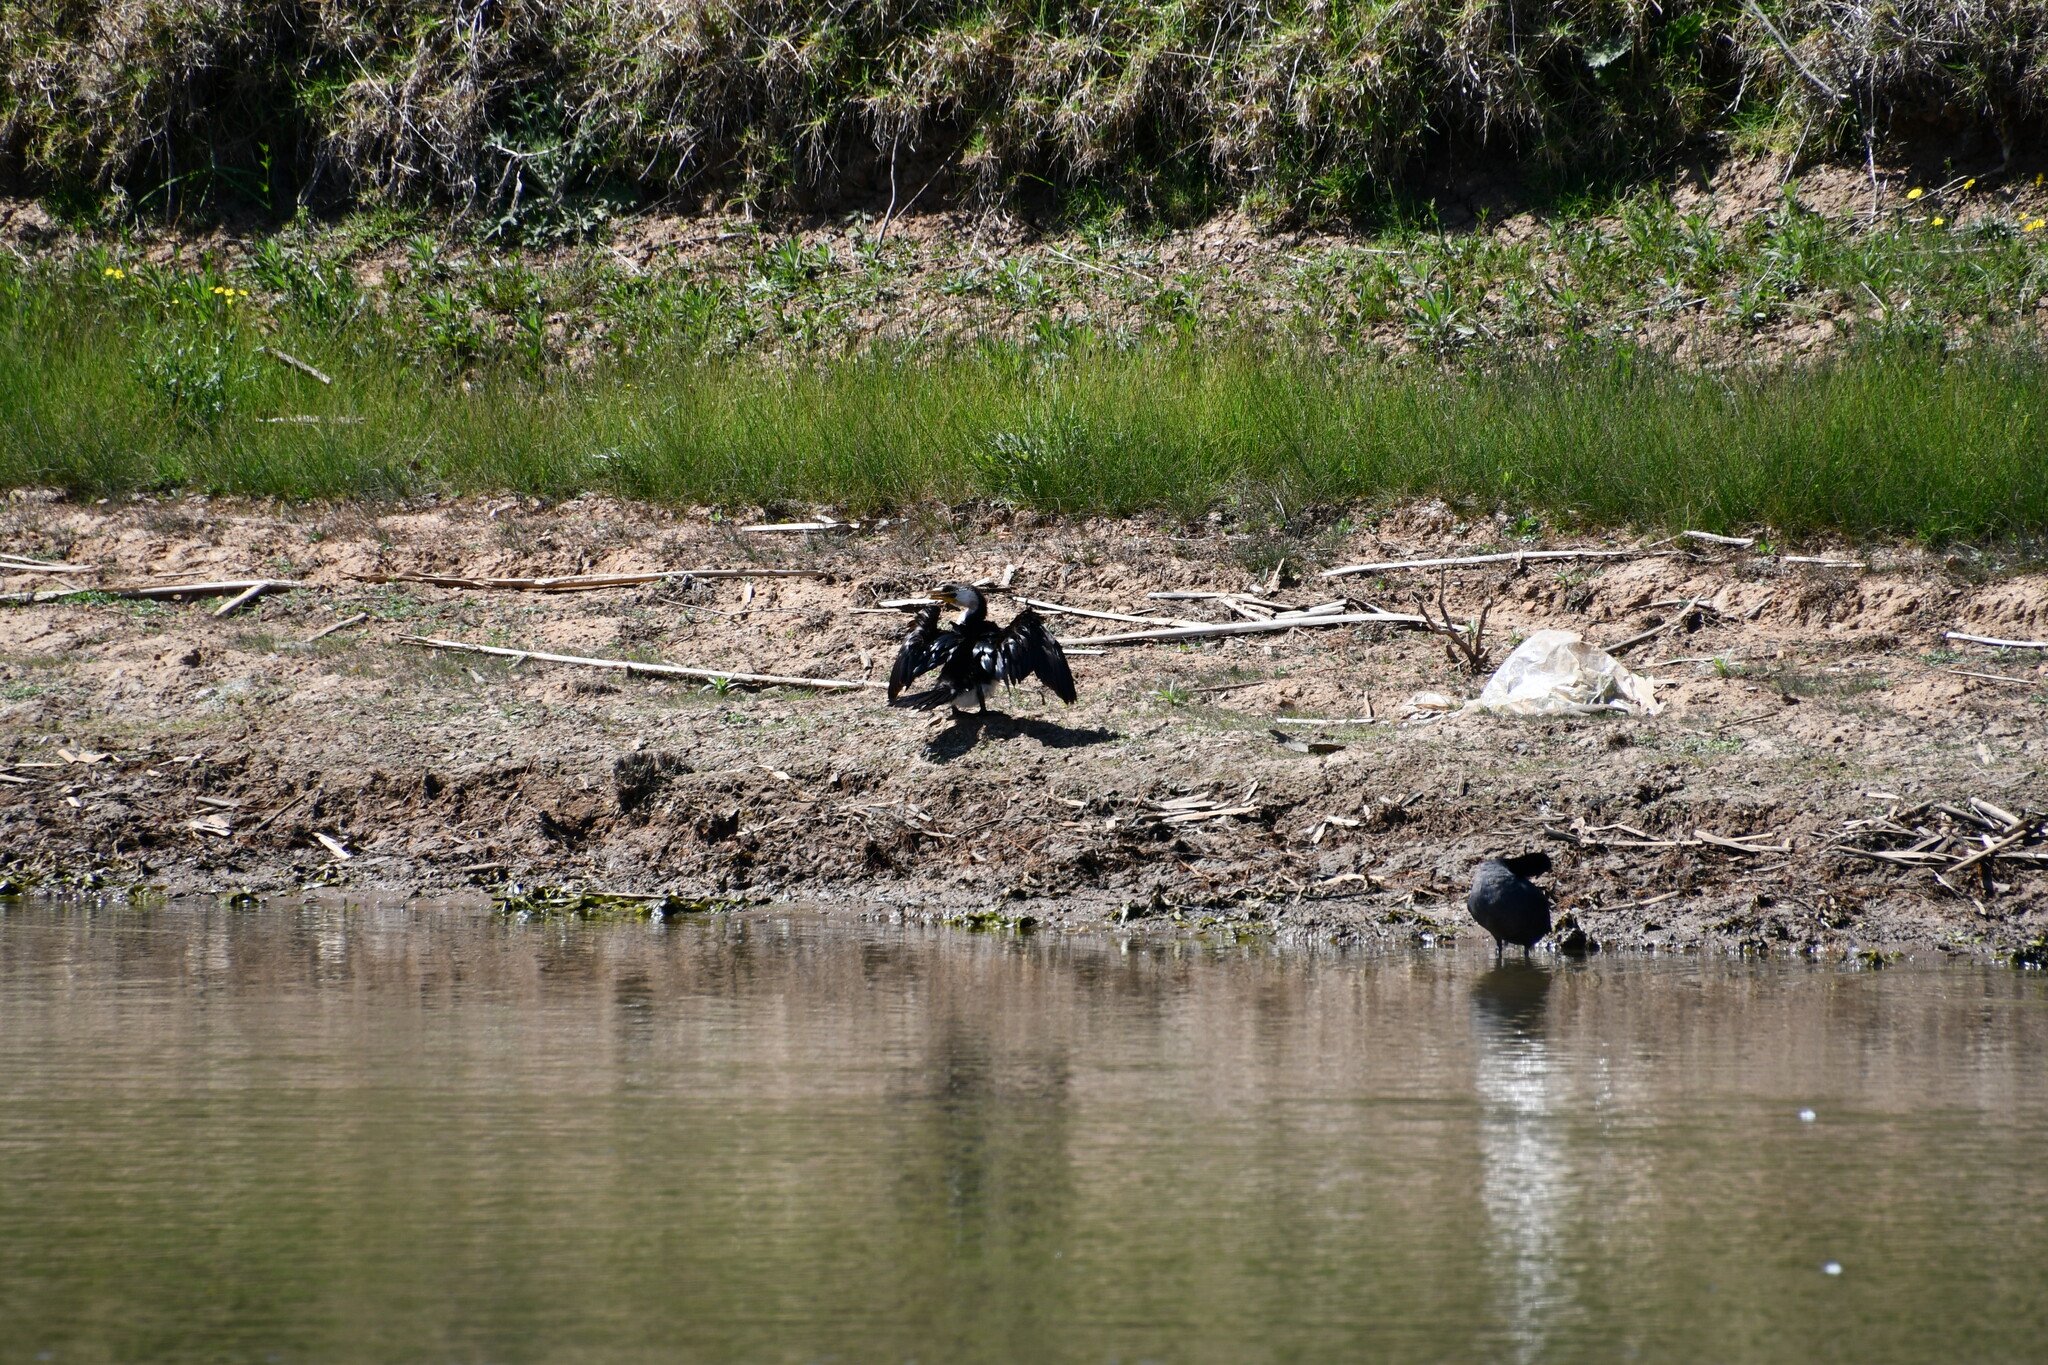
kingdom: Animalia
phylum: Chordata
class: Aves
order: Suliformes
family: Phalacrocoracidae
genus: Microcarbo
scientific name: Microcarbo melanoleucos
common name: Little pied cormorant
